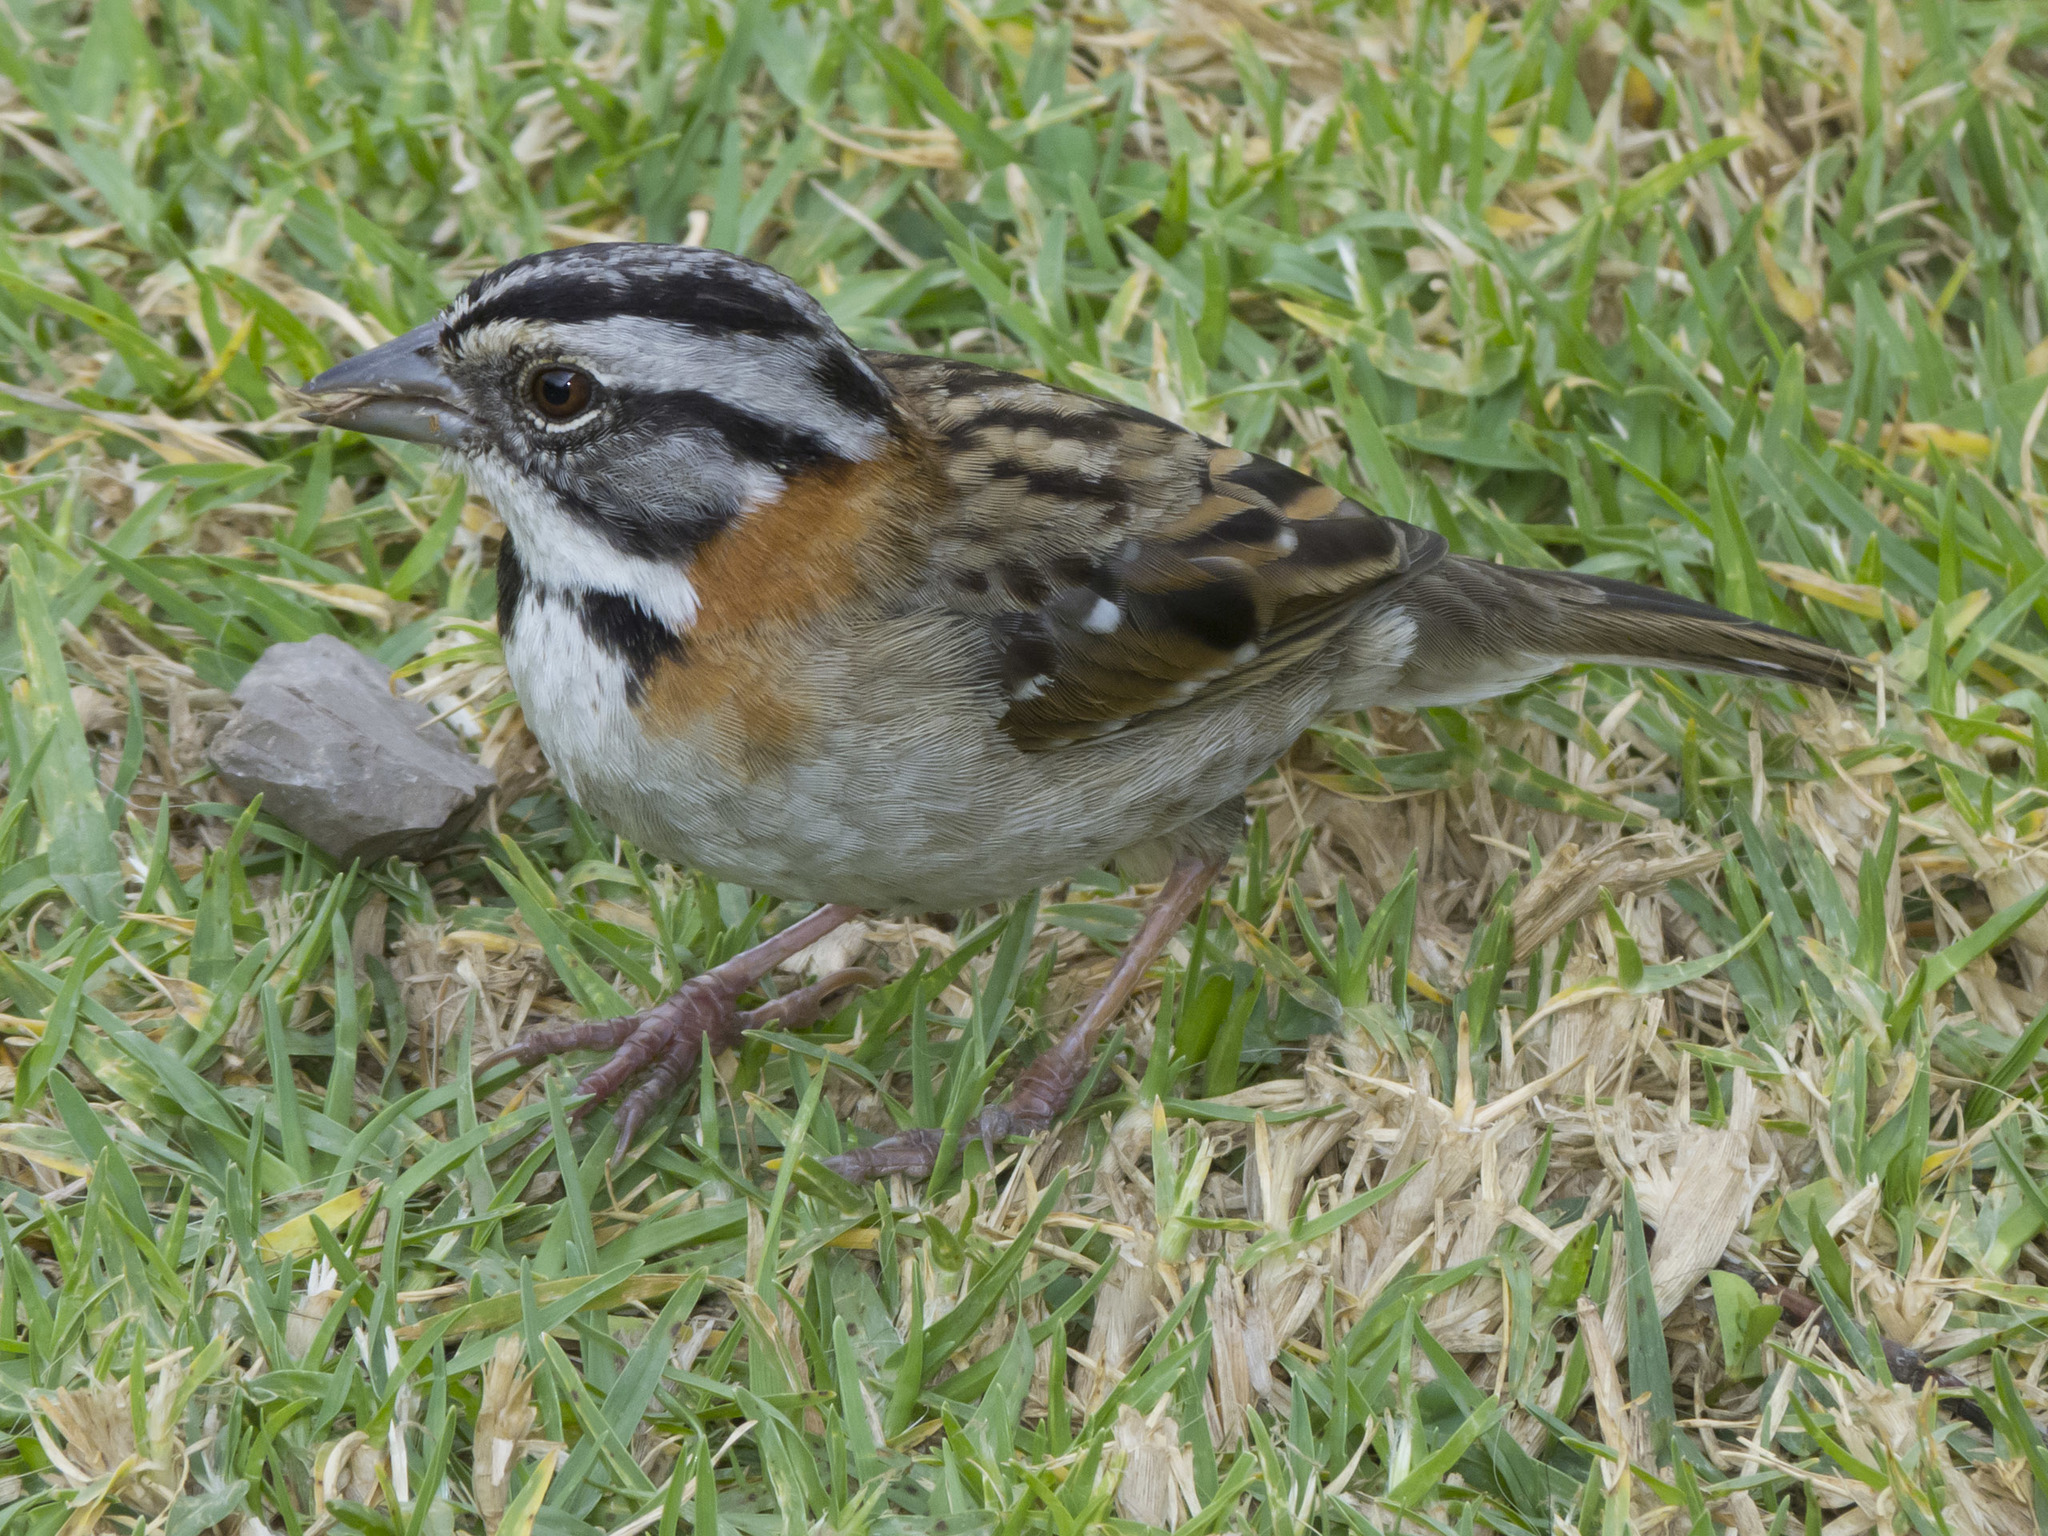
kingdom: Animalia
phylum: Chordata
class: Aves
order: Passeriformes
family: Passerellidae
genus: Zonotrichia
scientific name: Zonotrichia capensis
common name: Rufous-collared sparrow
